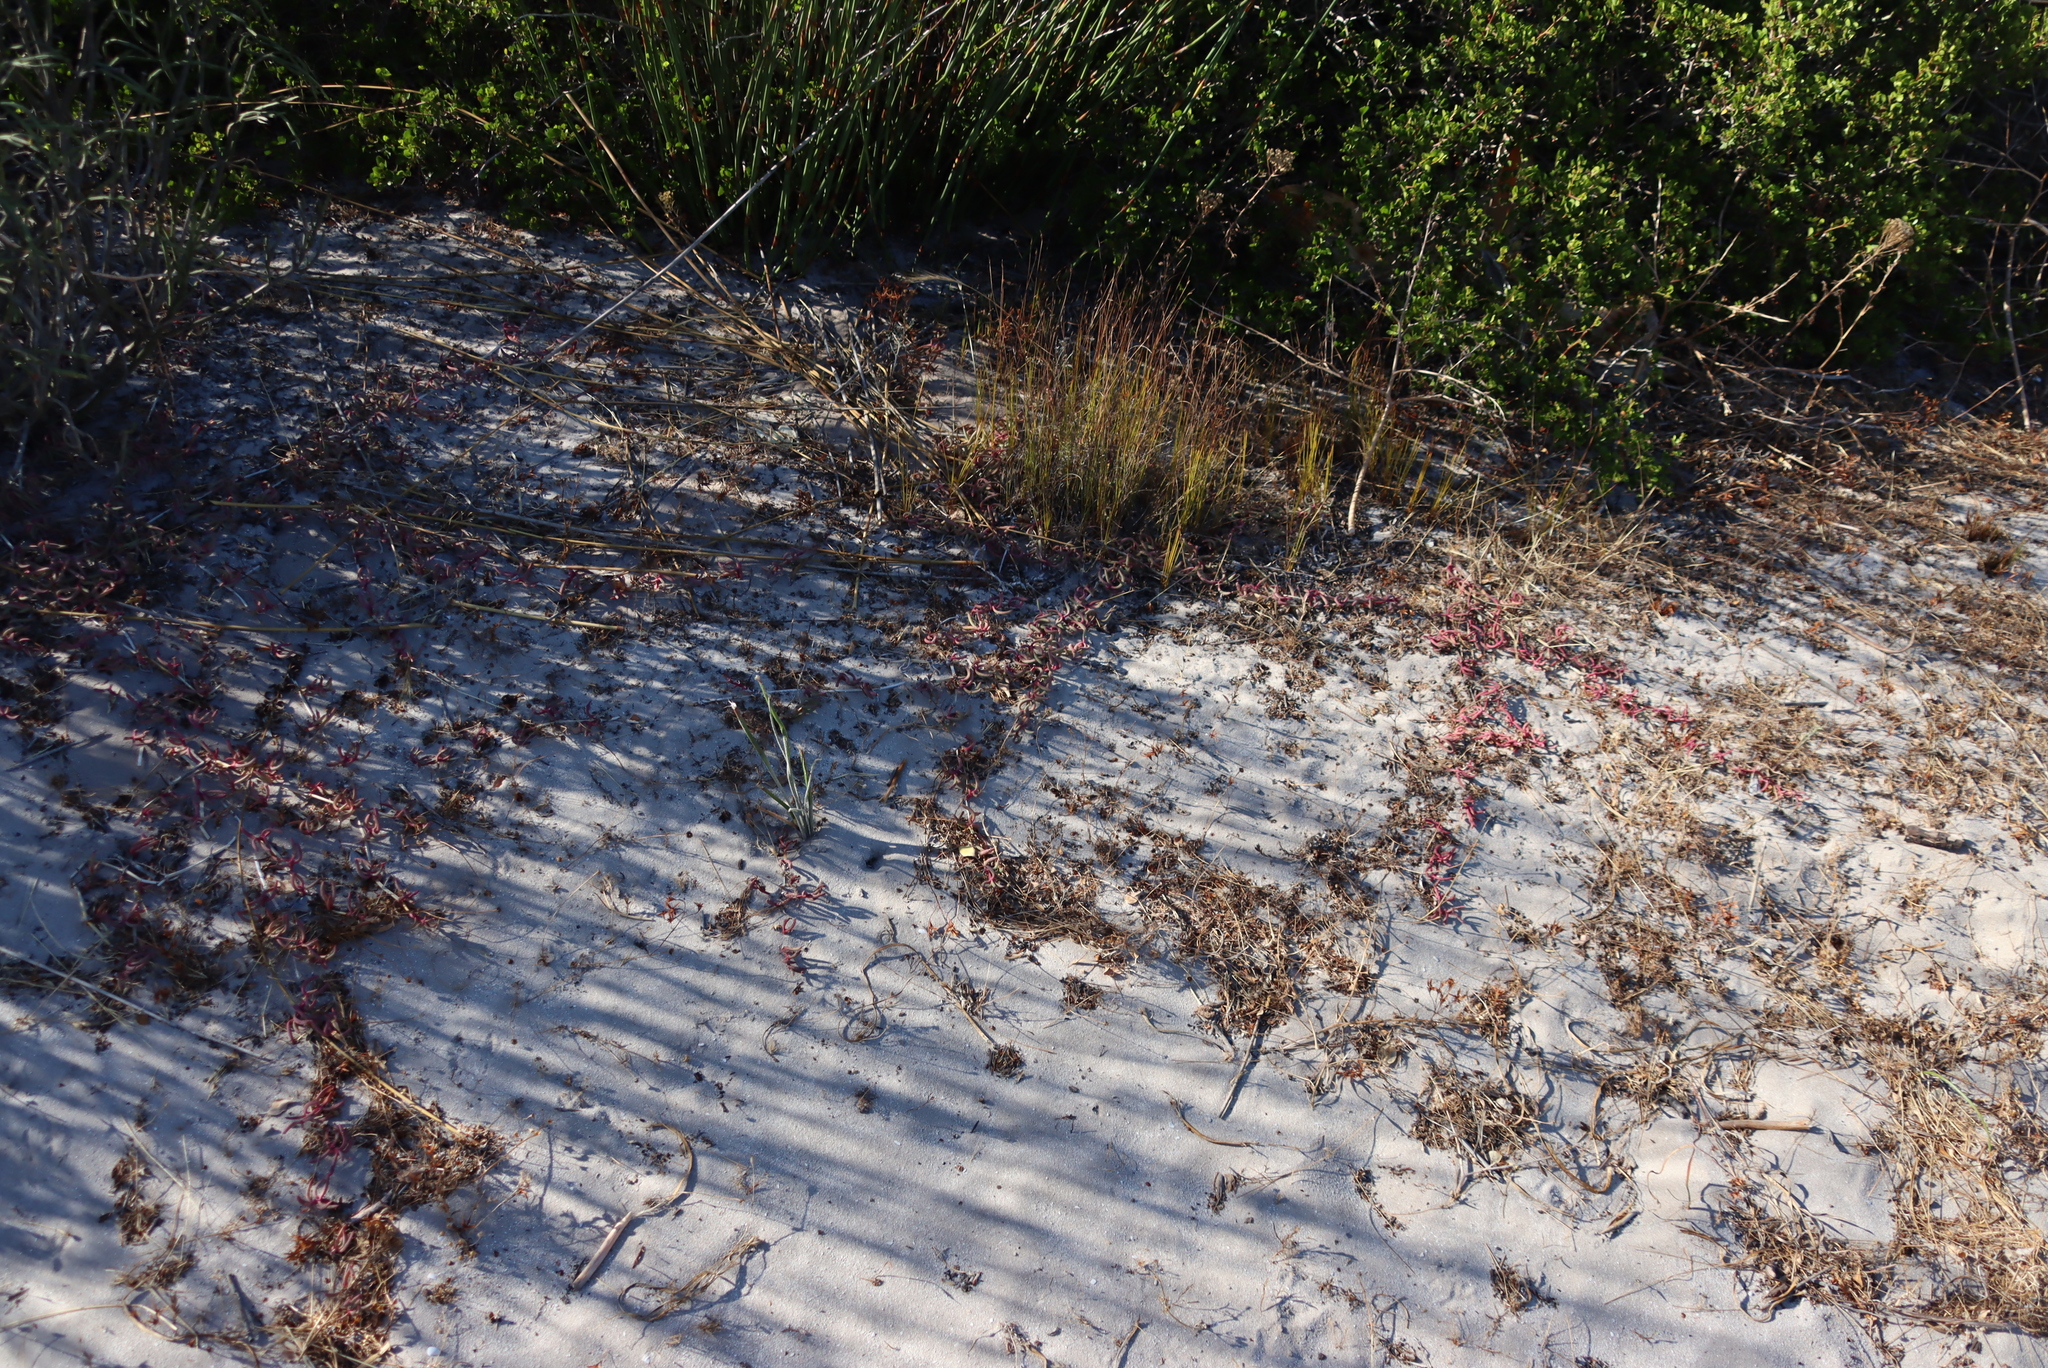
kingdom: Plantae
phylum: Tracheophyta
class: Magnoliopsida
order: Caryophyllales
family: Aizoaceae
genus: Jordaaniella
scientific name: Jordaaniella dubia
